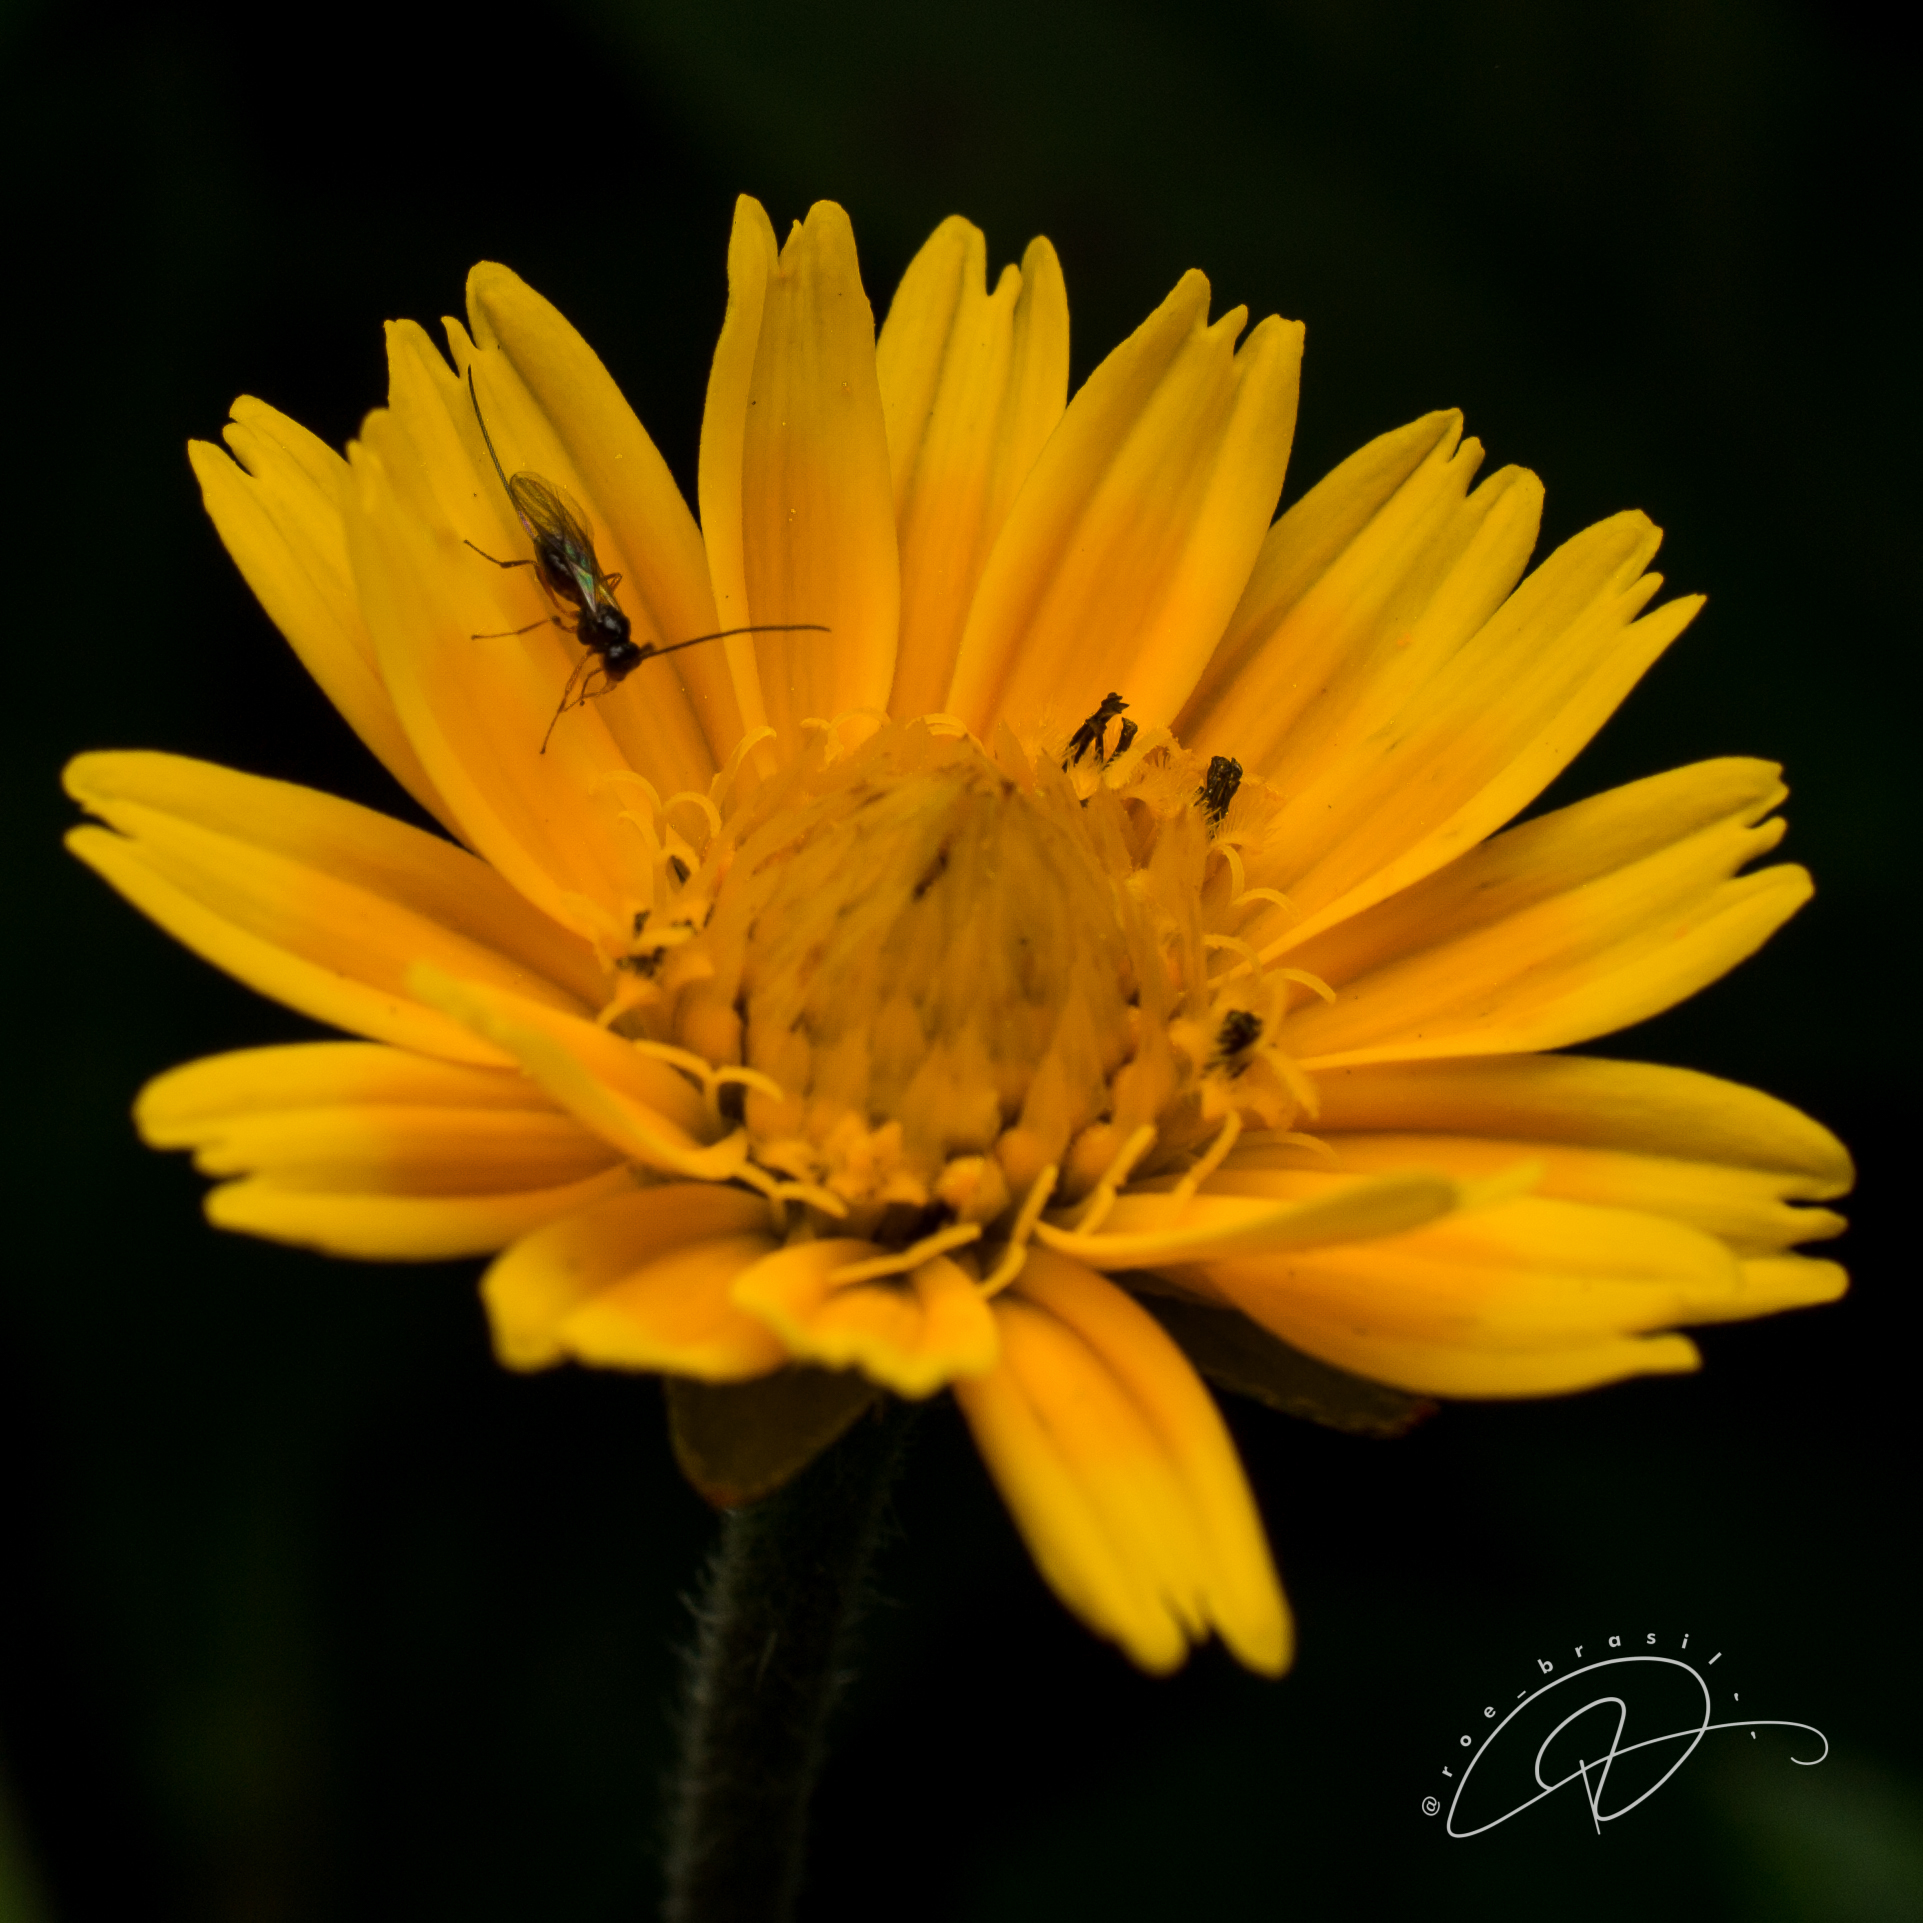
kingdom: Plantae
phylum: Tracheophyta
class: Magnoliopsida
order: Asterales
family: Asteraceae
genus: Sphagneticola
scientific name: Sphagneticola trilobata
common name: Bay biscayne creeping-oxeye
